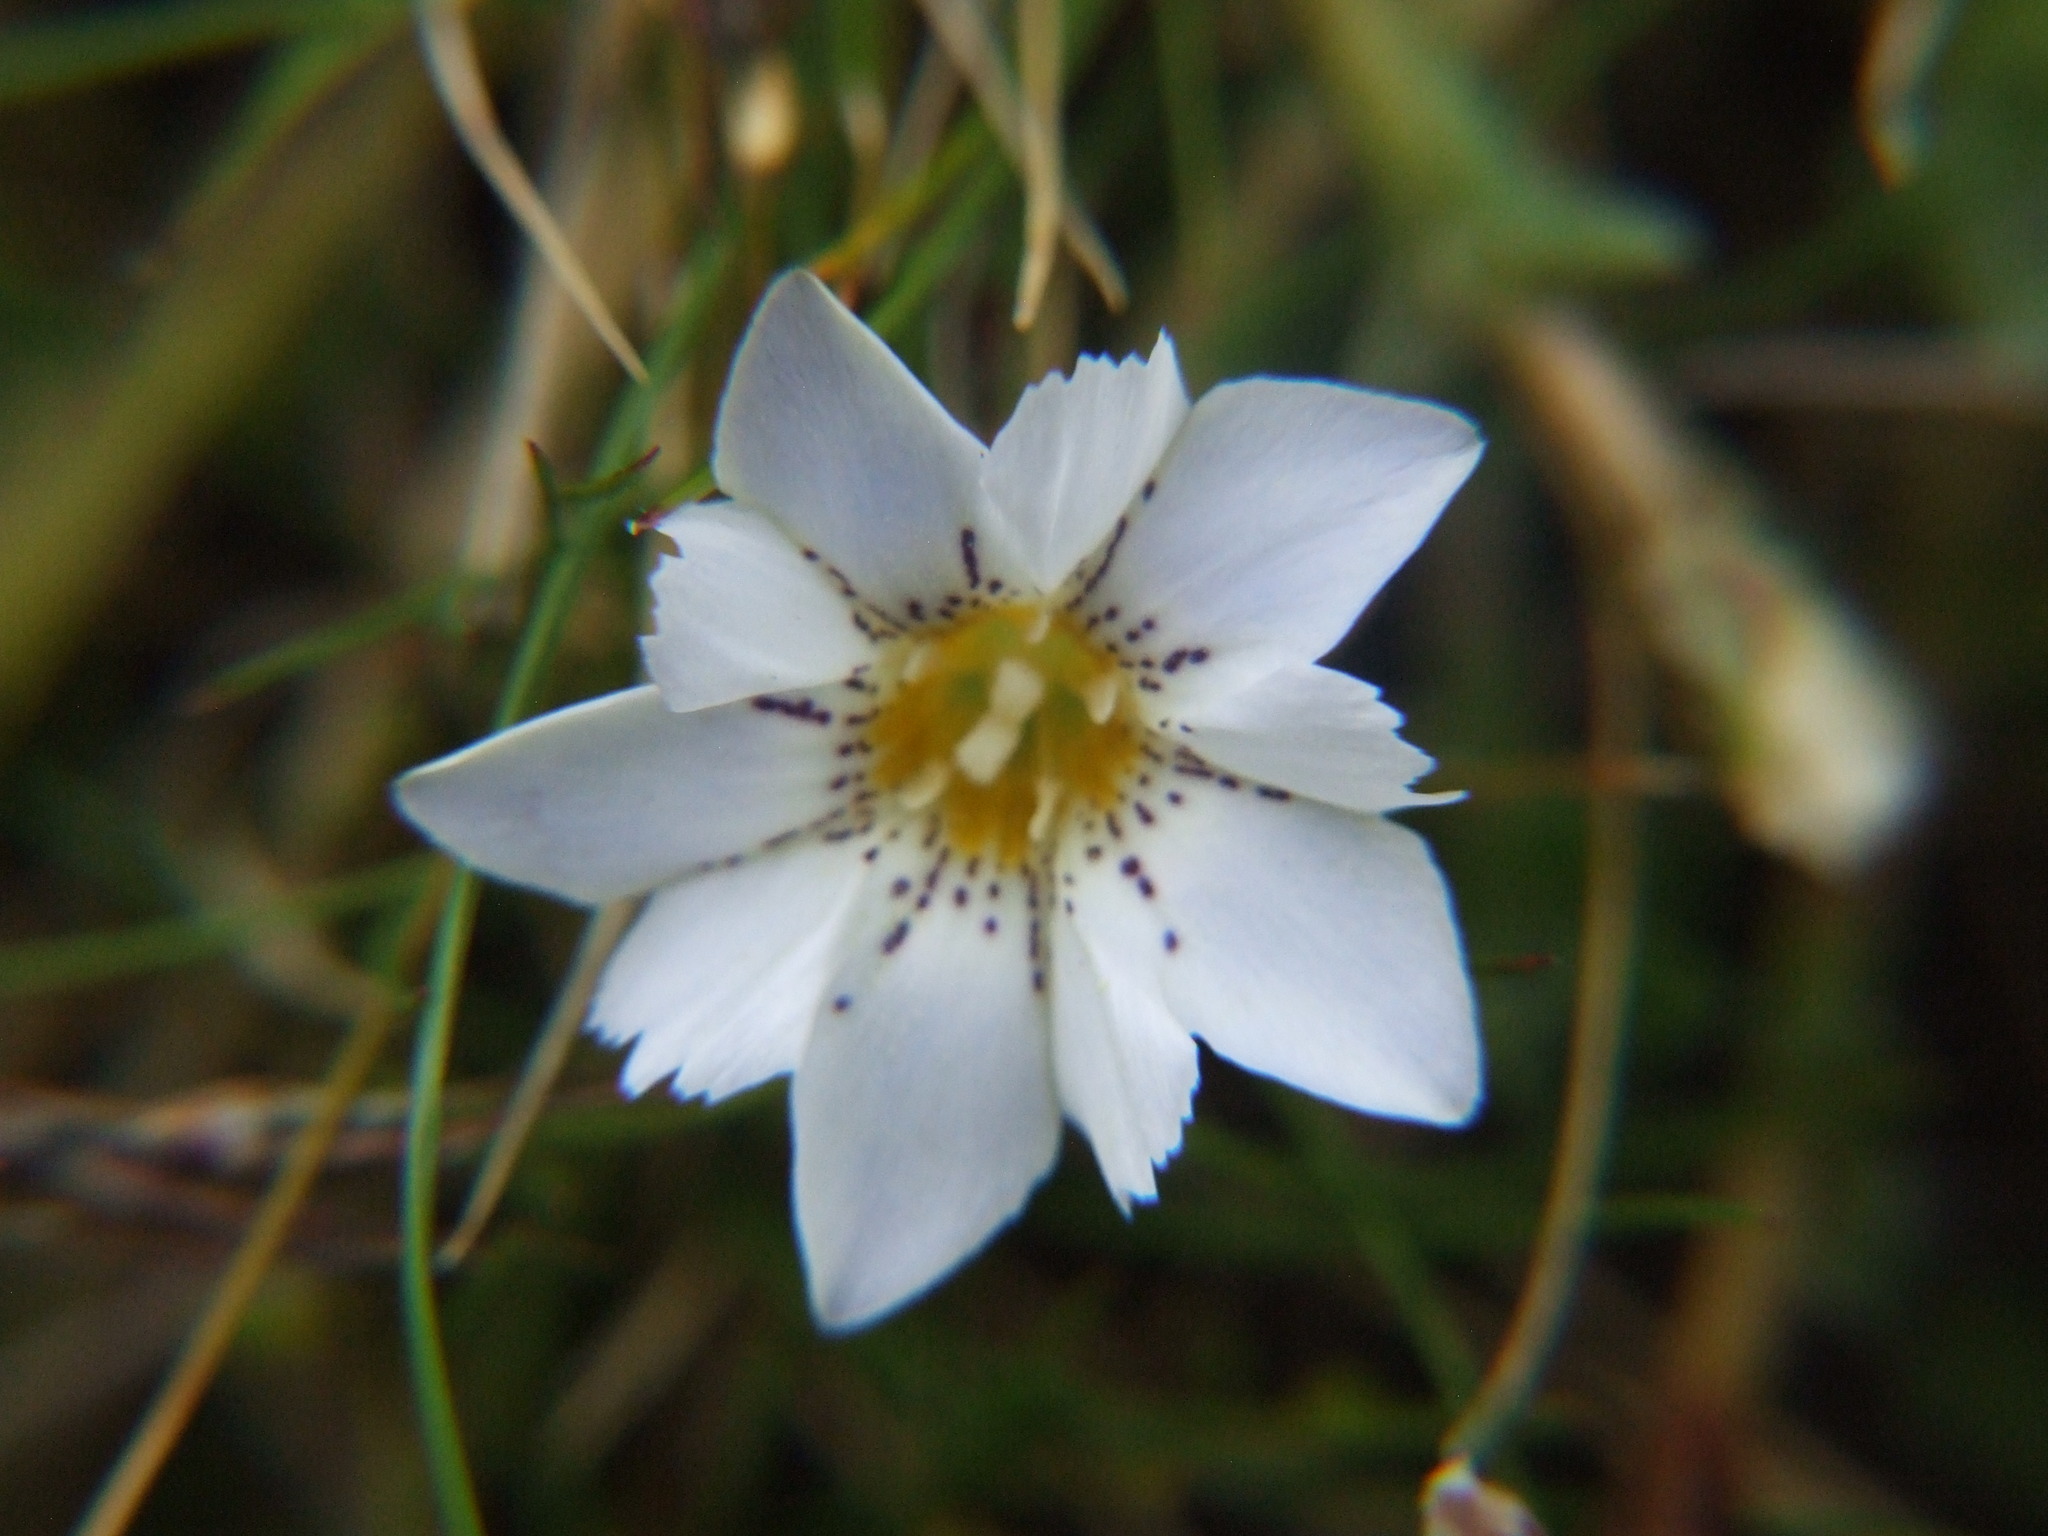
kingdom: Plantae
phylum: Tracheophyta
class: Magnoliopsida
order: Gentianales
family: Gentianaceae
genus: Gentiana
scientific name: Gentiana sedifolia
